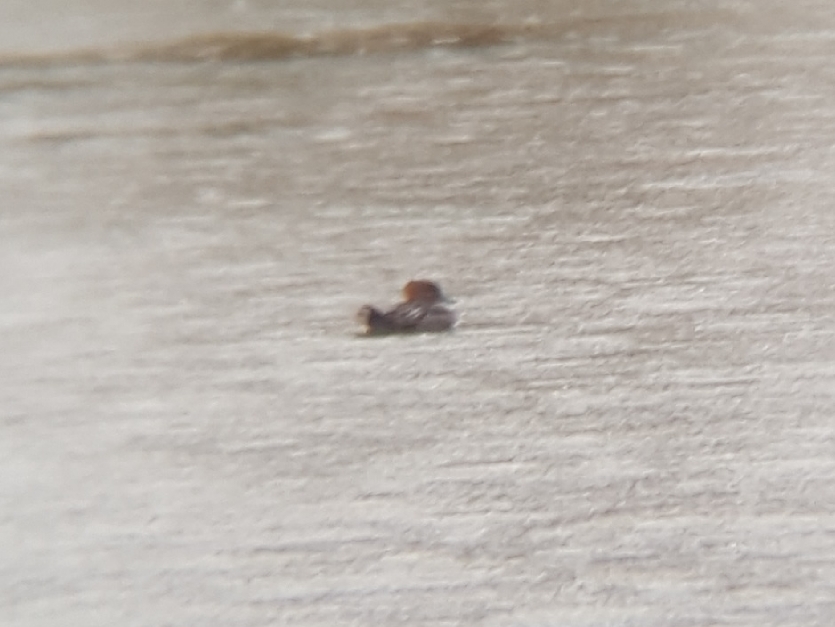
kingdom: Animalia
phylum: Chordata
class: Aves
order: Anseriformes
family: Anatidae
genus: Lophodytes
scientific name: Lophodytes cucullatus
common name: Hooded merganser
